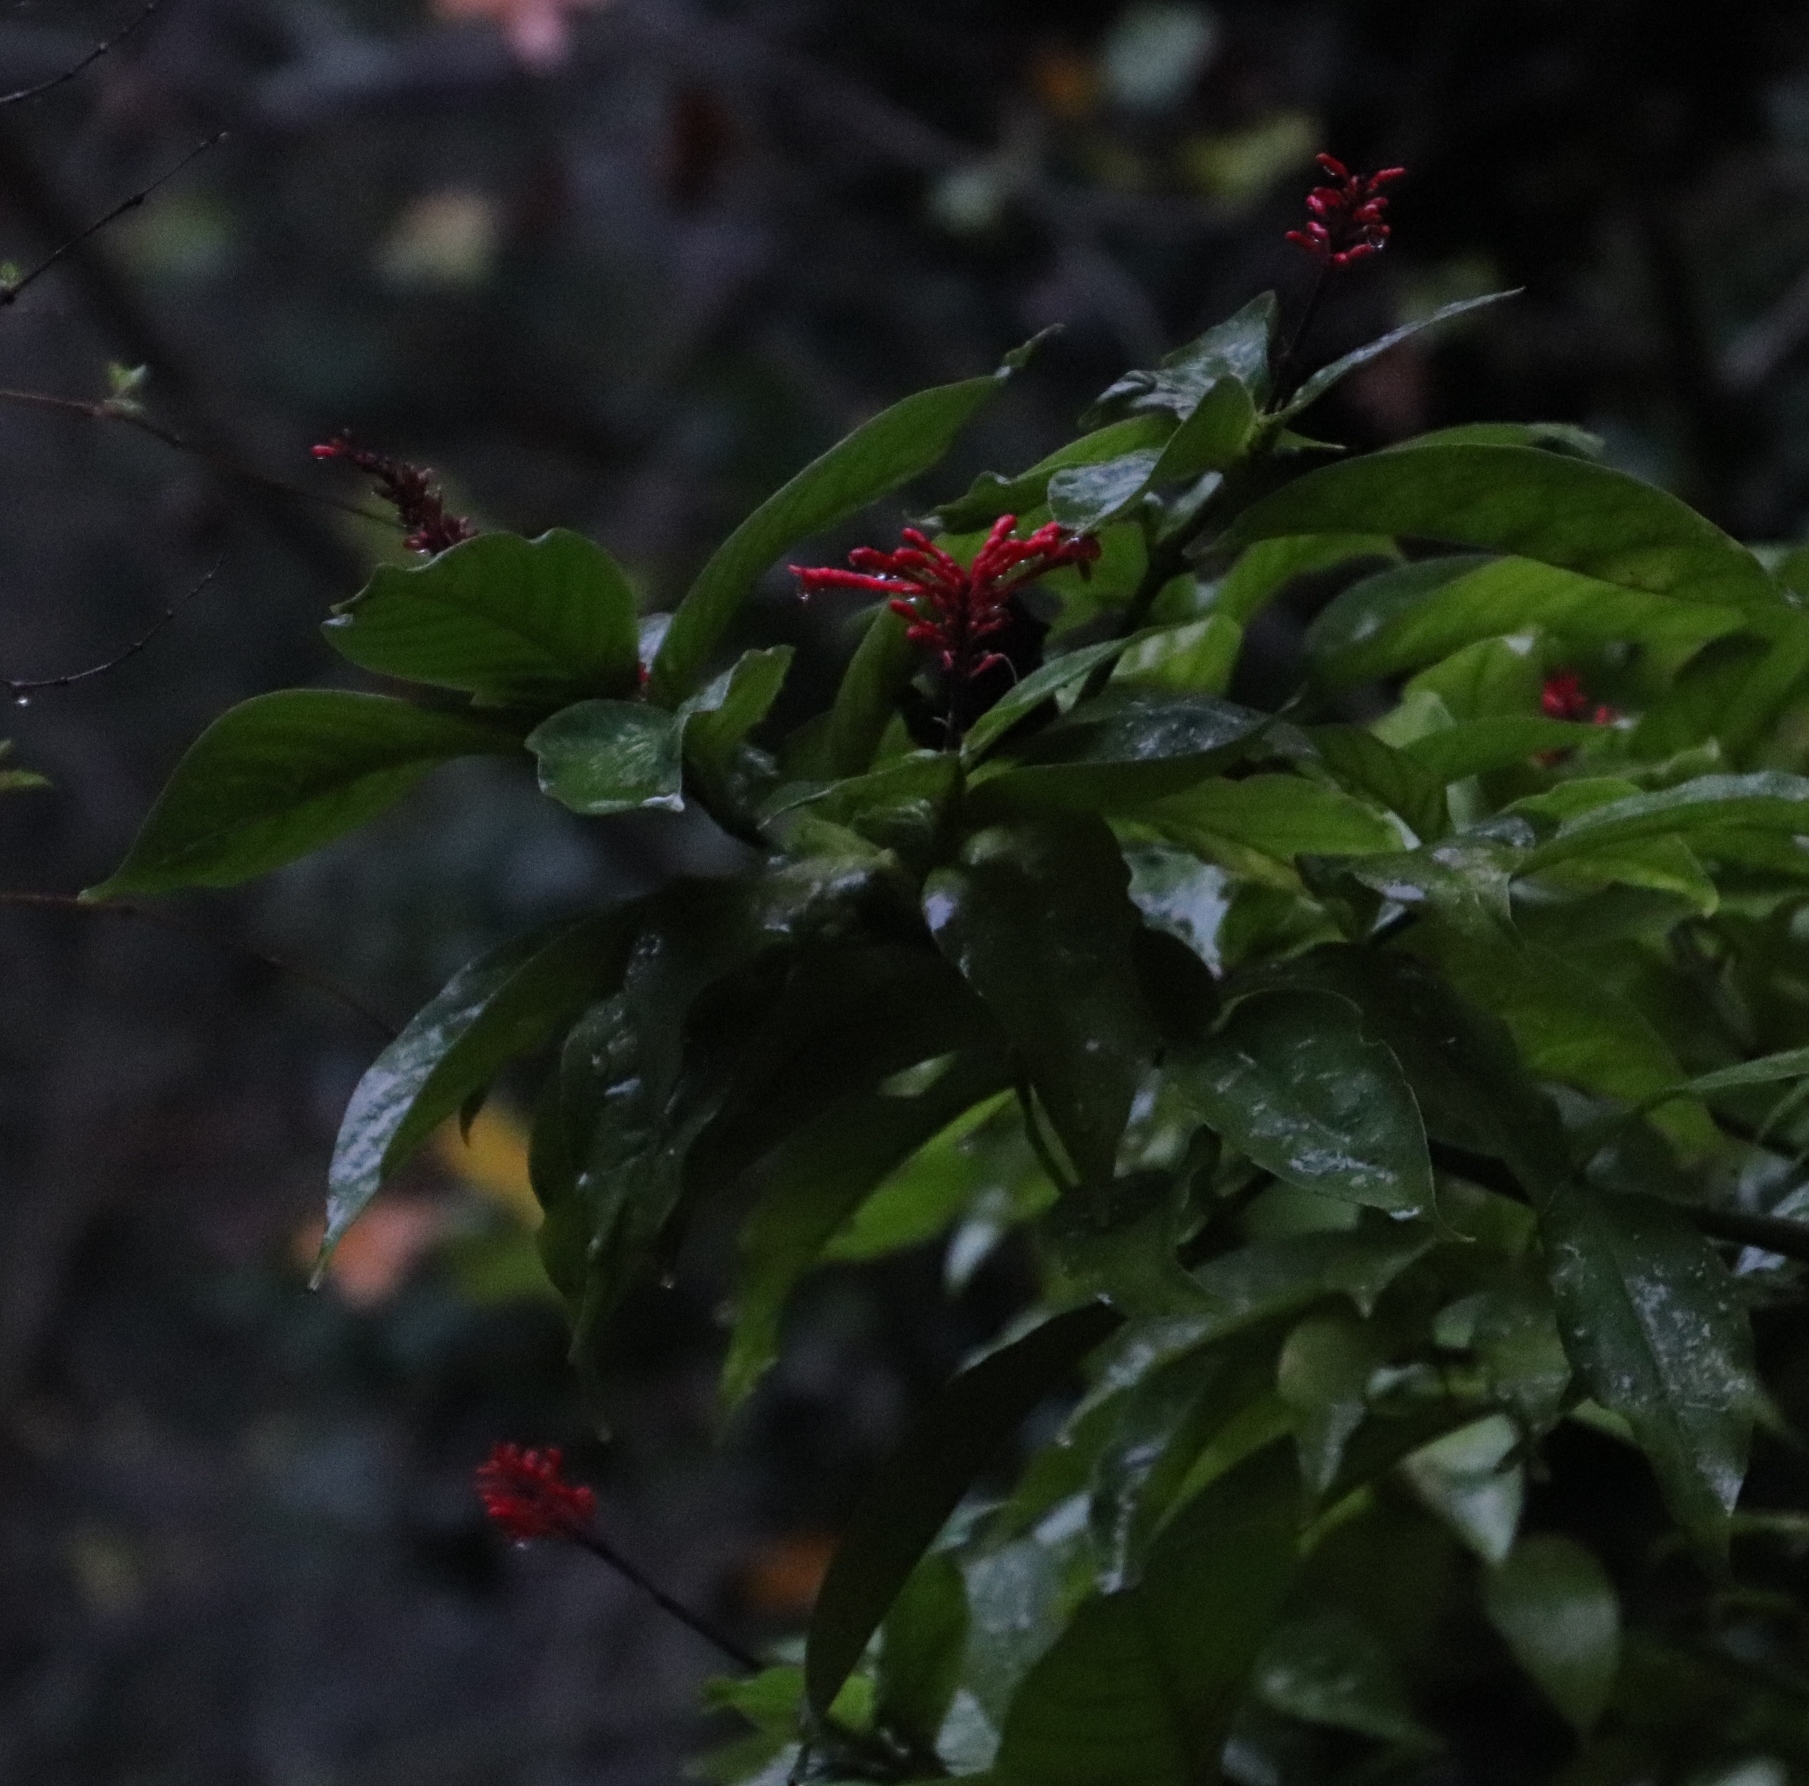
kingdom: Plantae
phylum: Tracheophyta
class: Magnoliopsida
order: Lamiales
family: Acanthaceae
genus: Odontonema
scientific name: Odontonema tubaeforme
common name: Firespike
